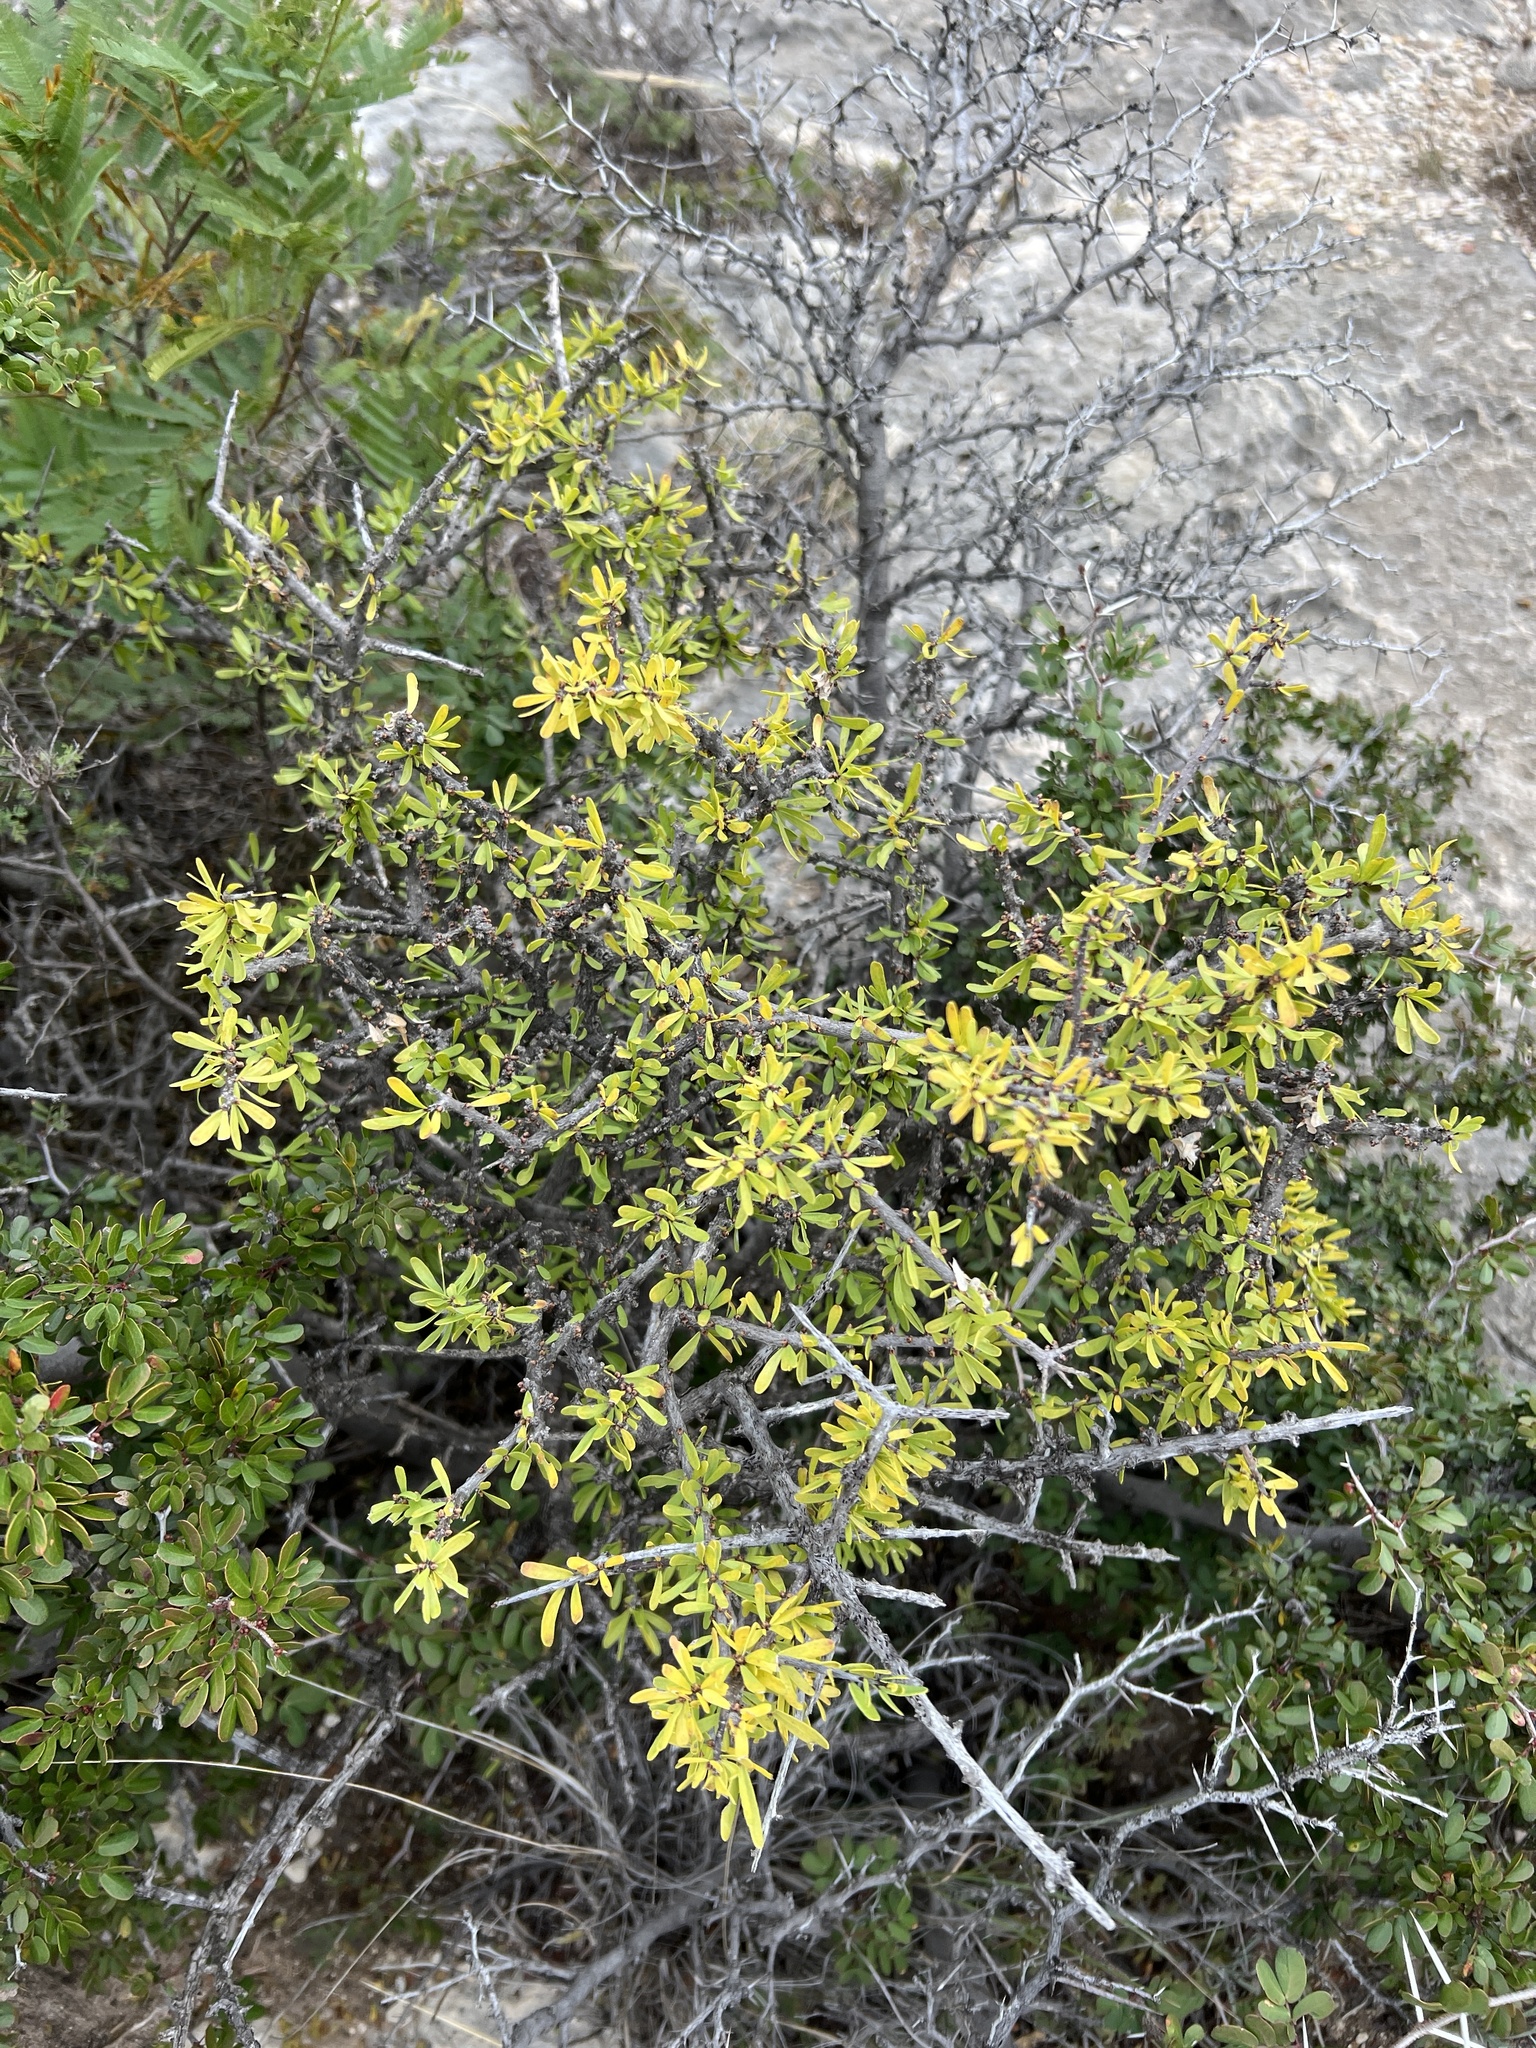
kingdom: Plantae
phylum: Tracheophyta
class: Magnoliopsida
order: Lamiales
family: Oleaceae
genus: Forestiera
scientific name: Forestiera angustifolia
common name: Elbowbush
